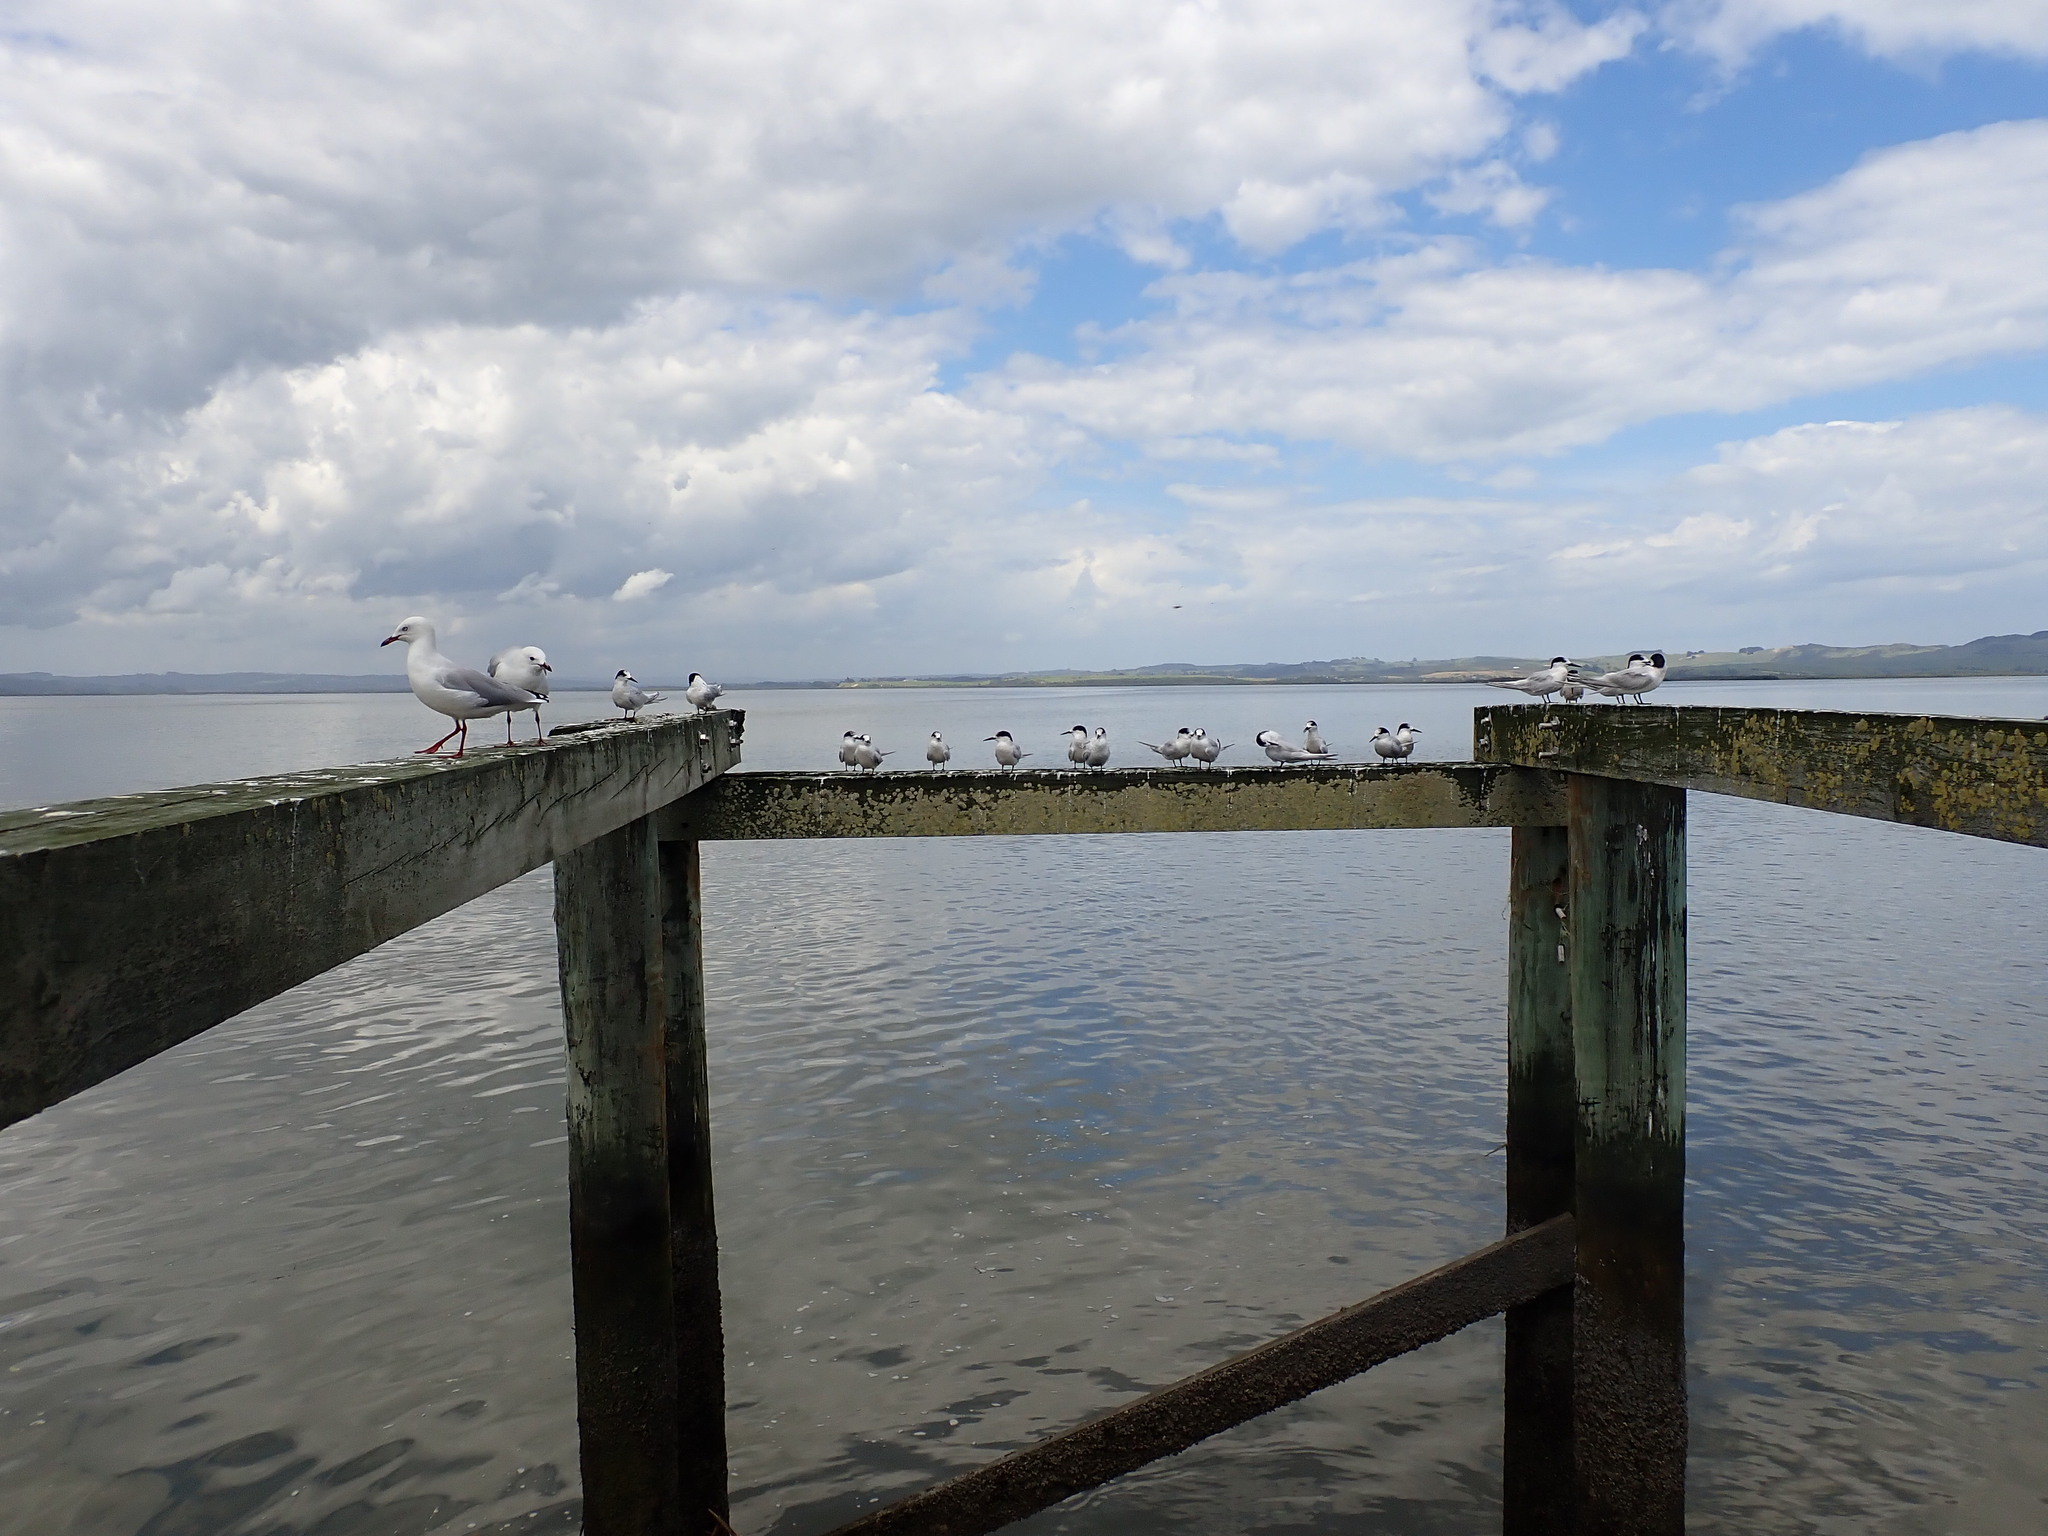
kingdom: Animalia
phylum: Chordata
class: Aves
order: Charadriiformes
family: Laridae
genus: Sterna
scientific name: Sterna striata
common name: White-fronted tern
